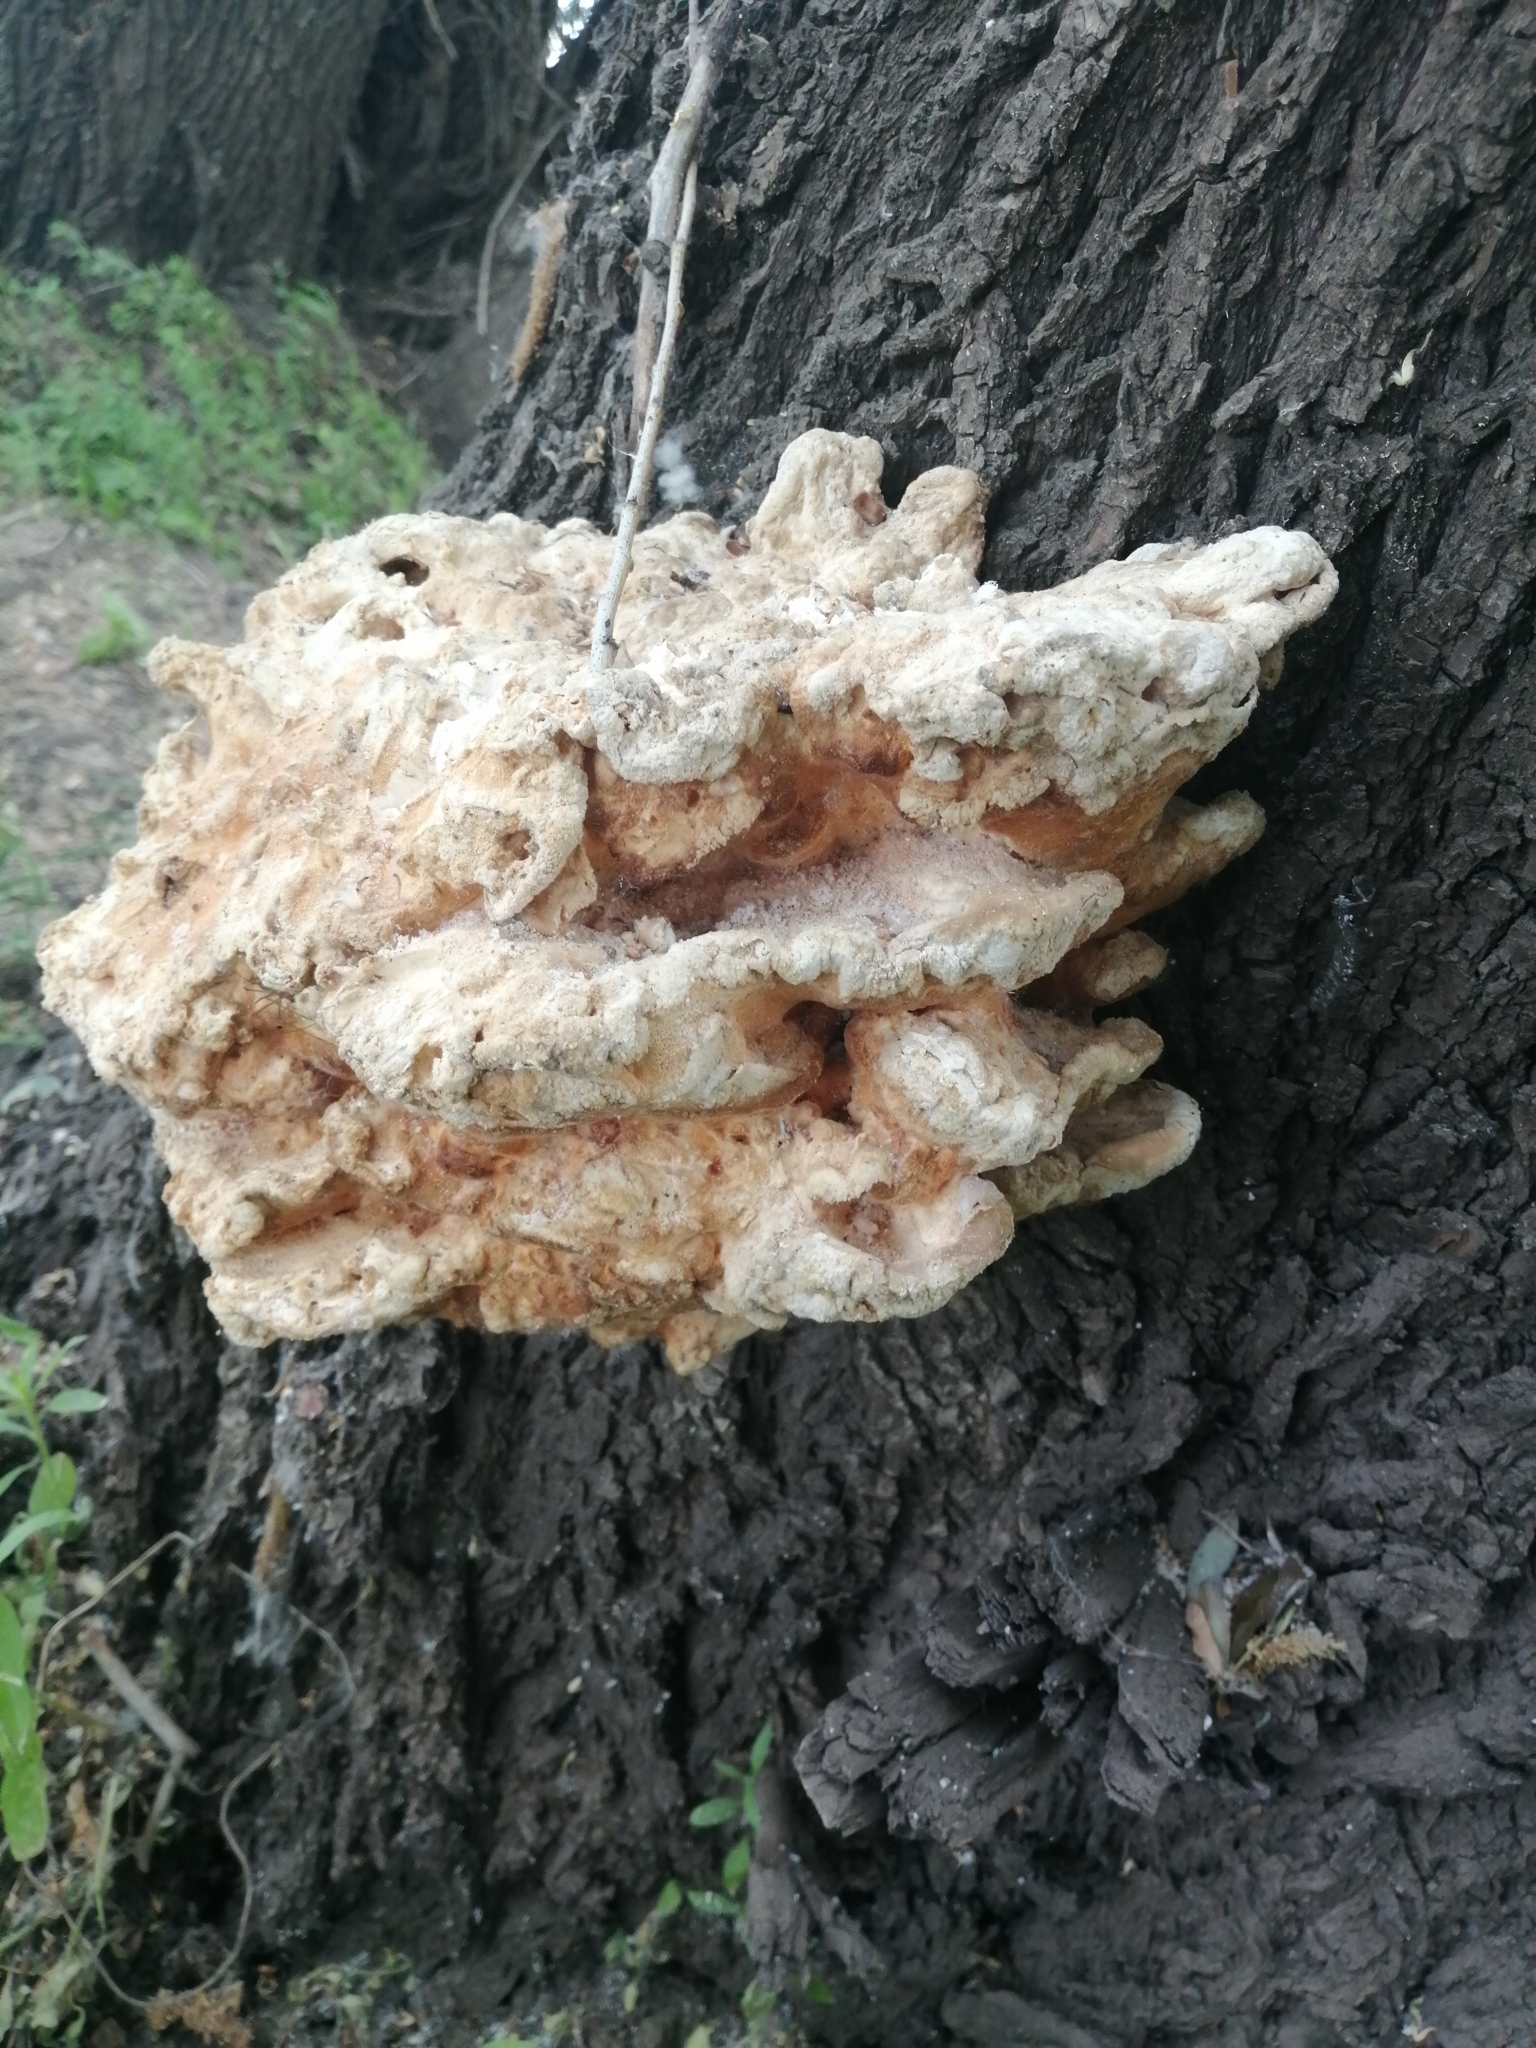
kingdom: Fungi
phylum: Basidiomycota
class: Agaricomycetes
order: Polyporales
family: Laetiporaceae
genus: Laetiporus
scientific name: Laetiporus sulphureus
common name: Chicken of the woods
